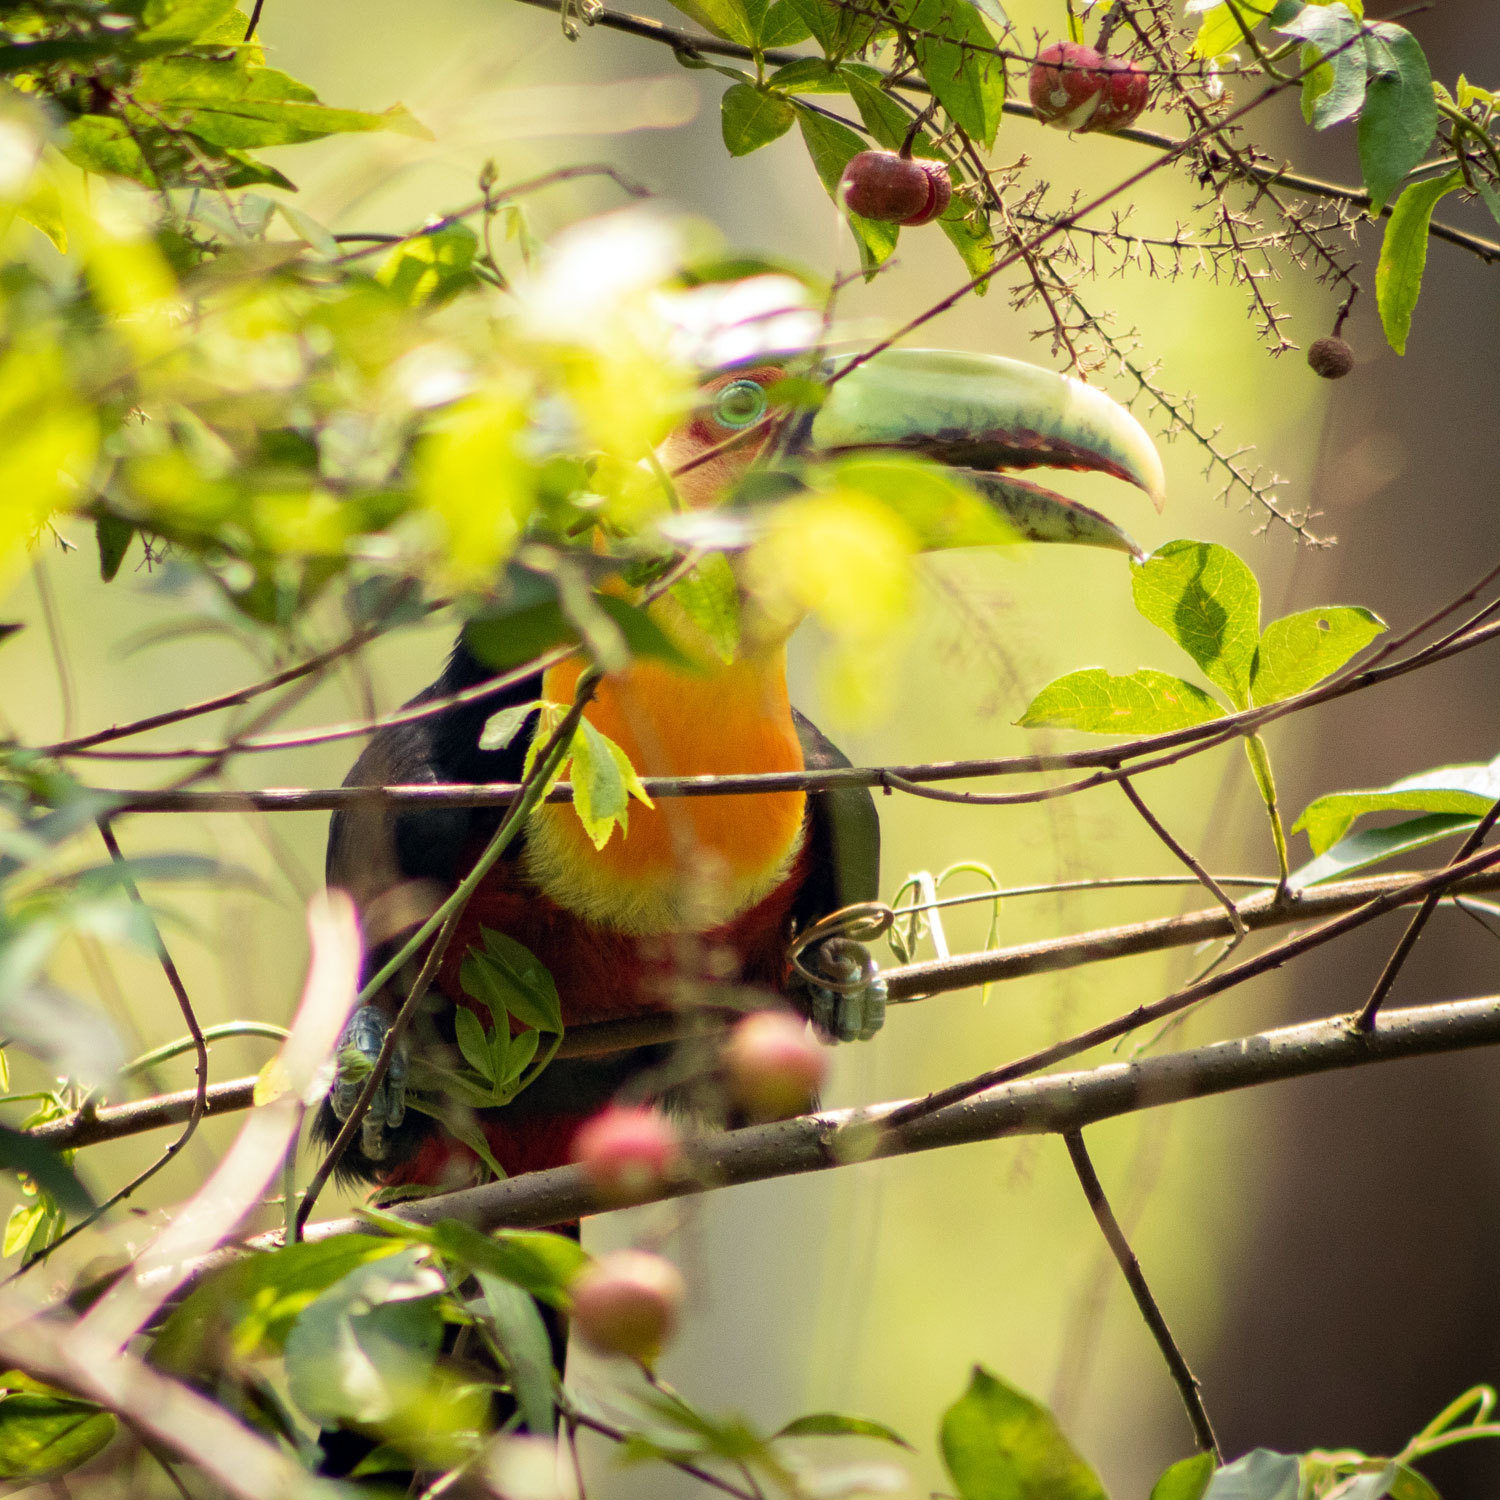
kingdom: Animalia
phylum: Chordata
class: Aves
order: Piciformes
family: Ramphastidae
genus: Ramphastos
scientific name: Ramphastos dicolorus
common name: Green-billed toucan
